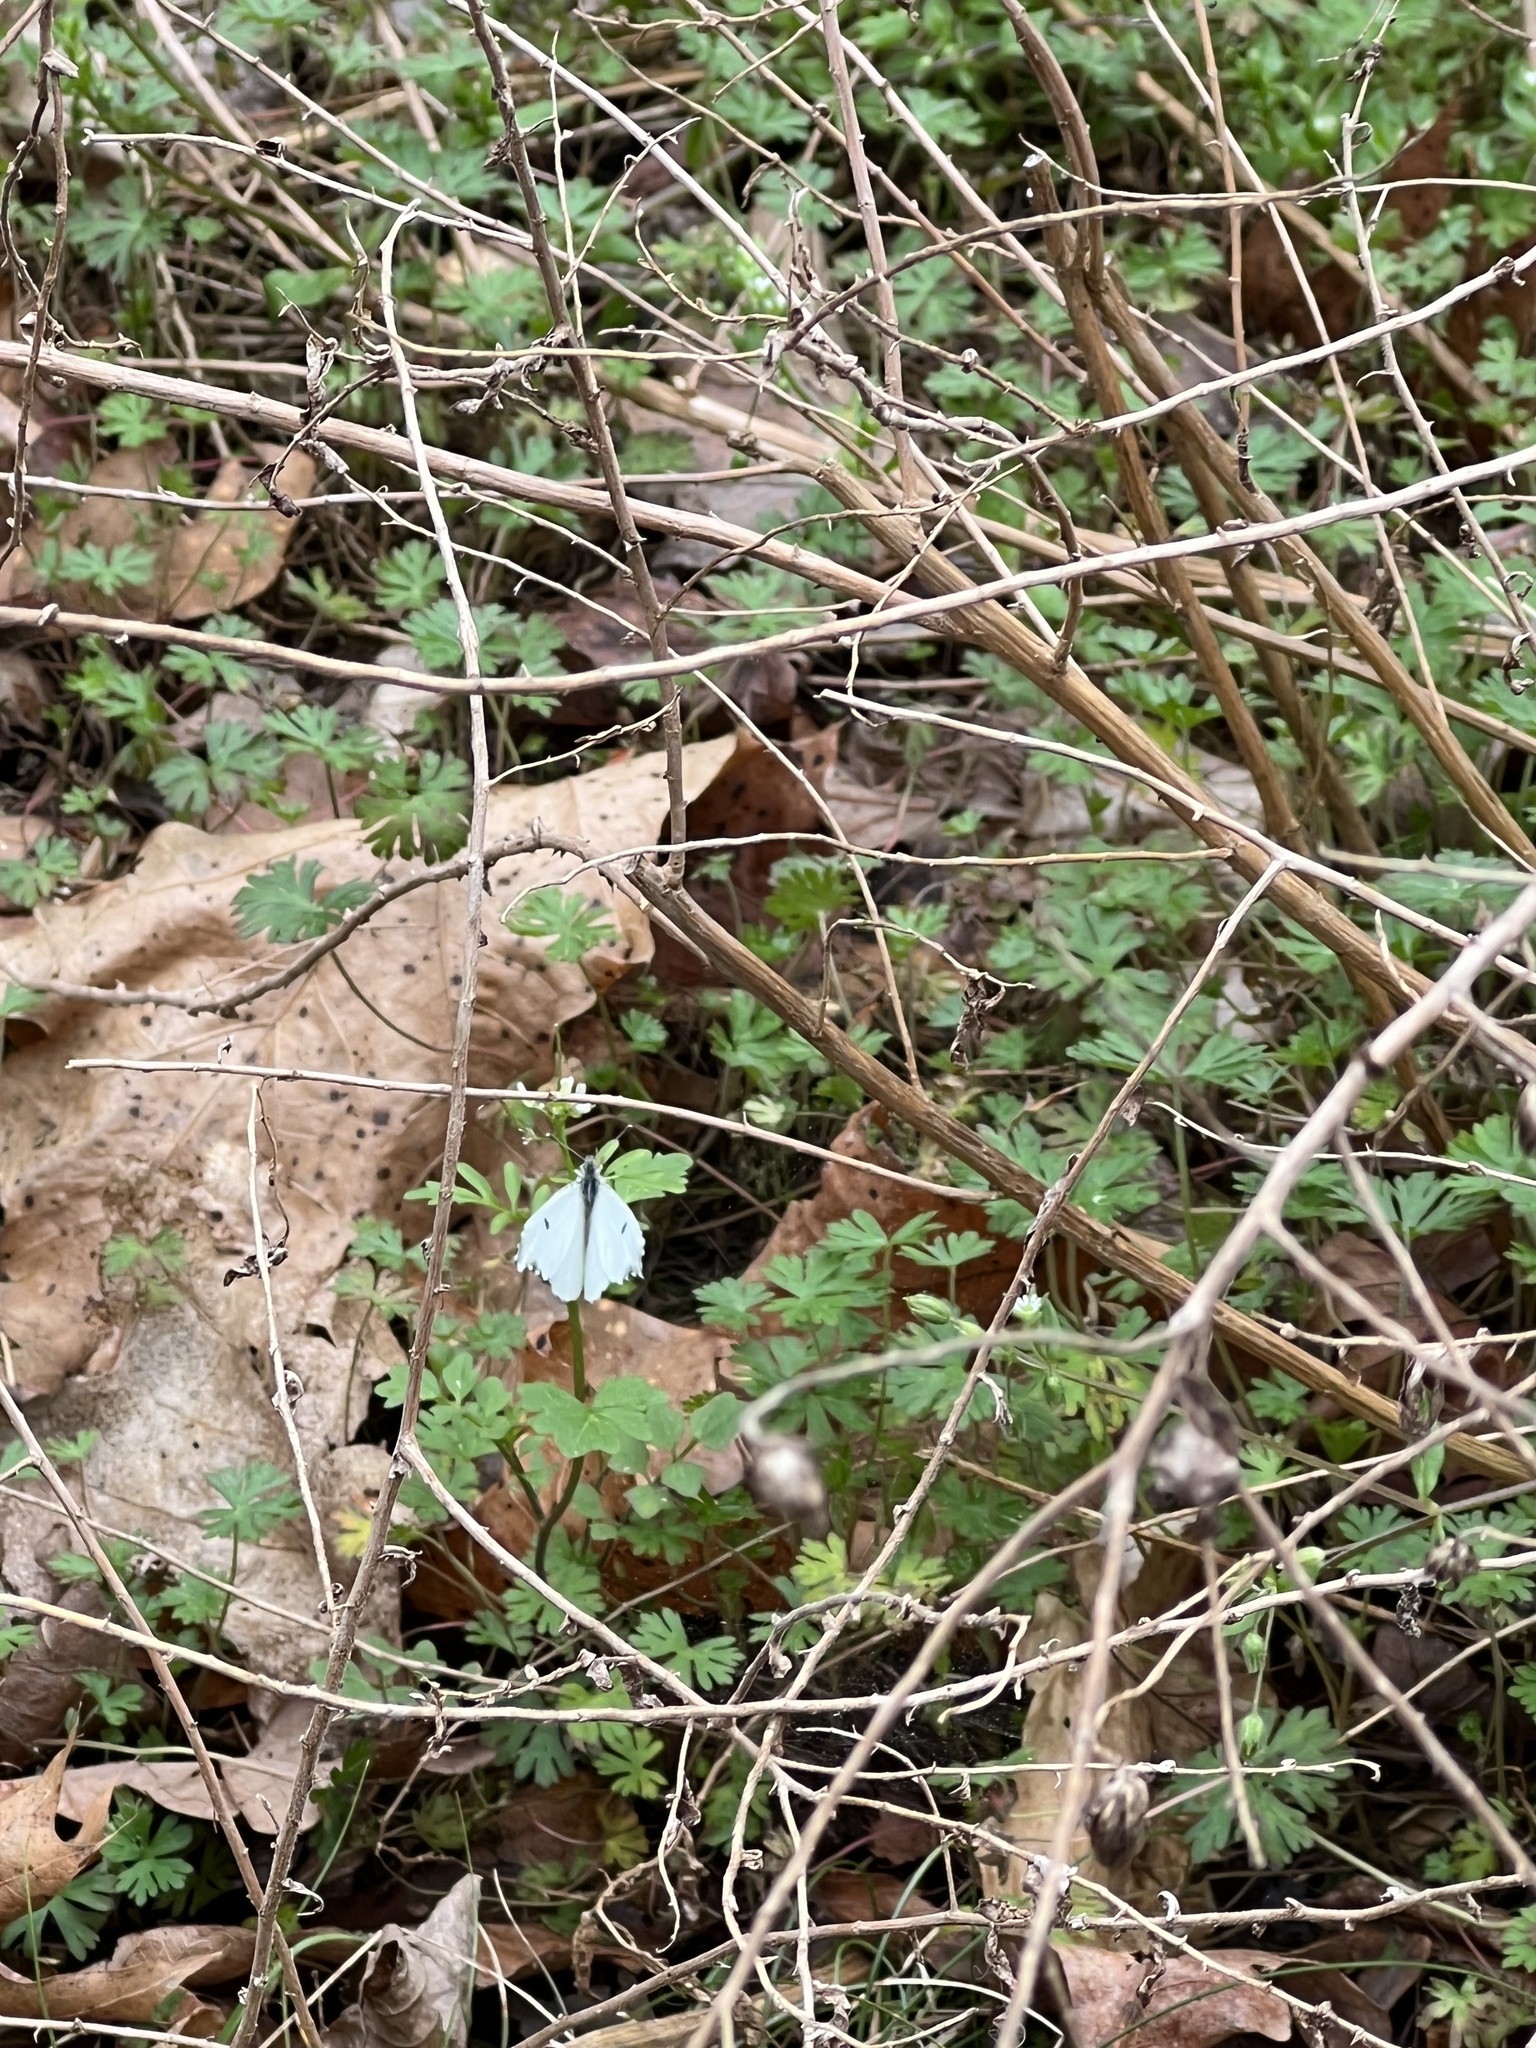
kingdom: Animalia
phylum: Arthropoda
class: Insecta
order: Lepidoptera
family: Pieridae
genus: Anthocharis
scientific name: Anthocharis midea
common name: Falcate orangetip
